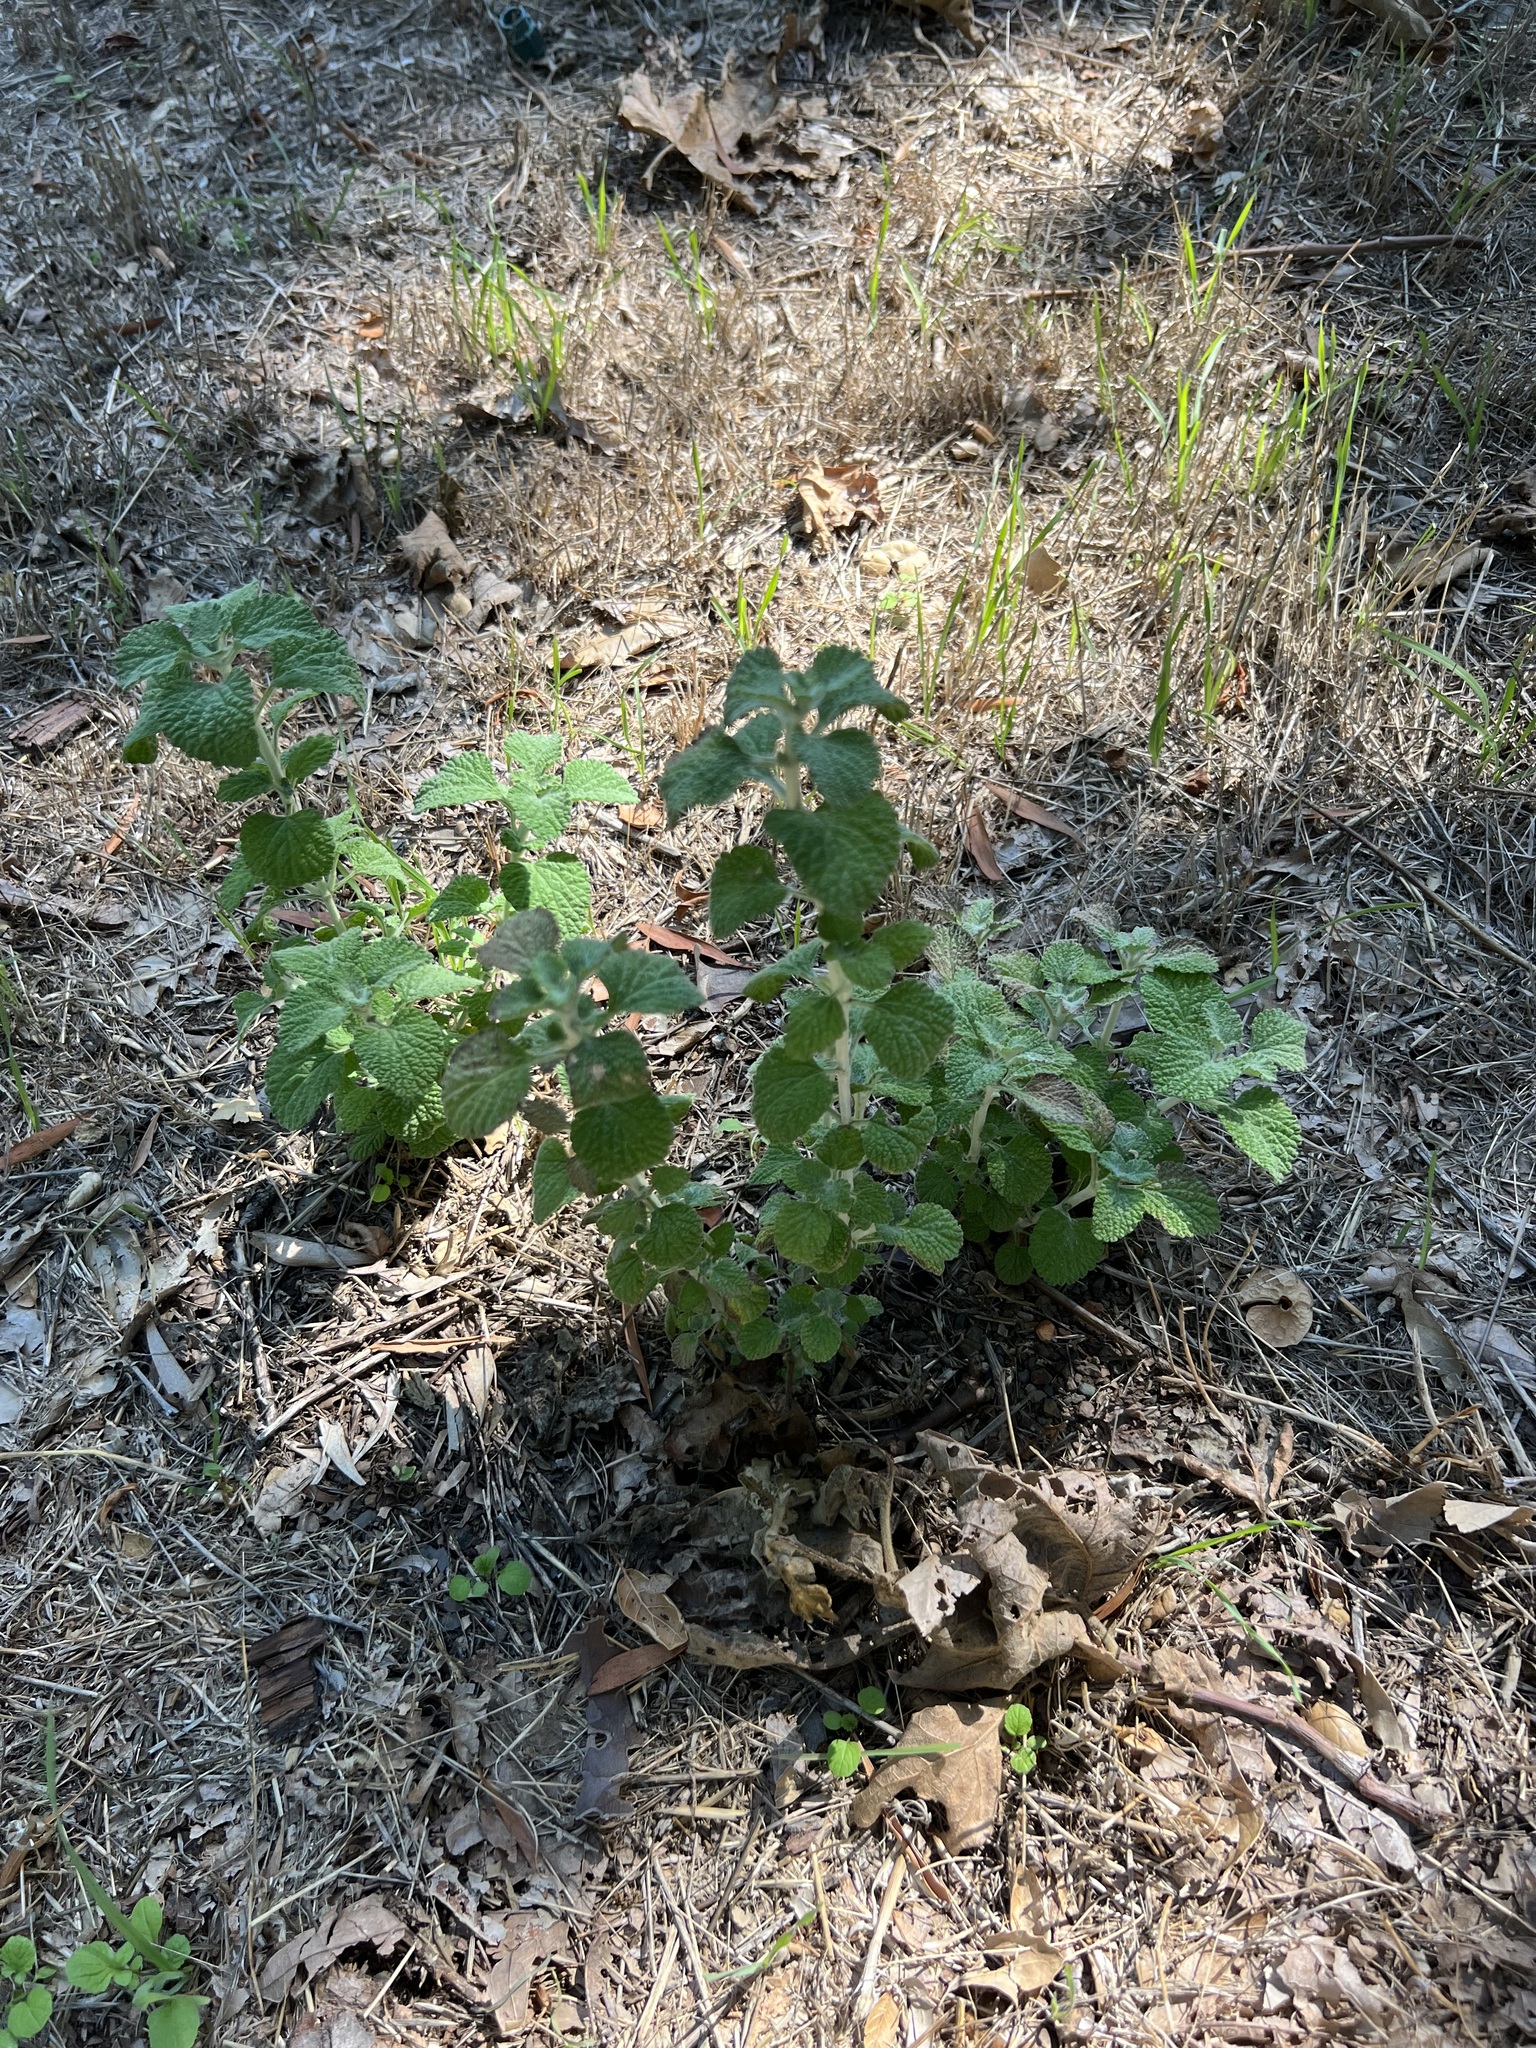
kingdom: Plantae
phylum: Tracheophyta
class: Magnoliopsida
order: Lamiales
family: Lamiaceae
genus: Marrubium
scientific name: Marrubium vulgare
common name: Horehound
